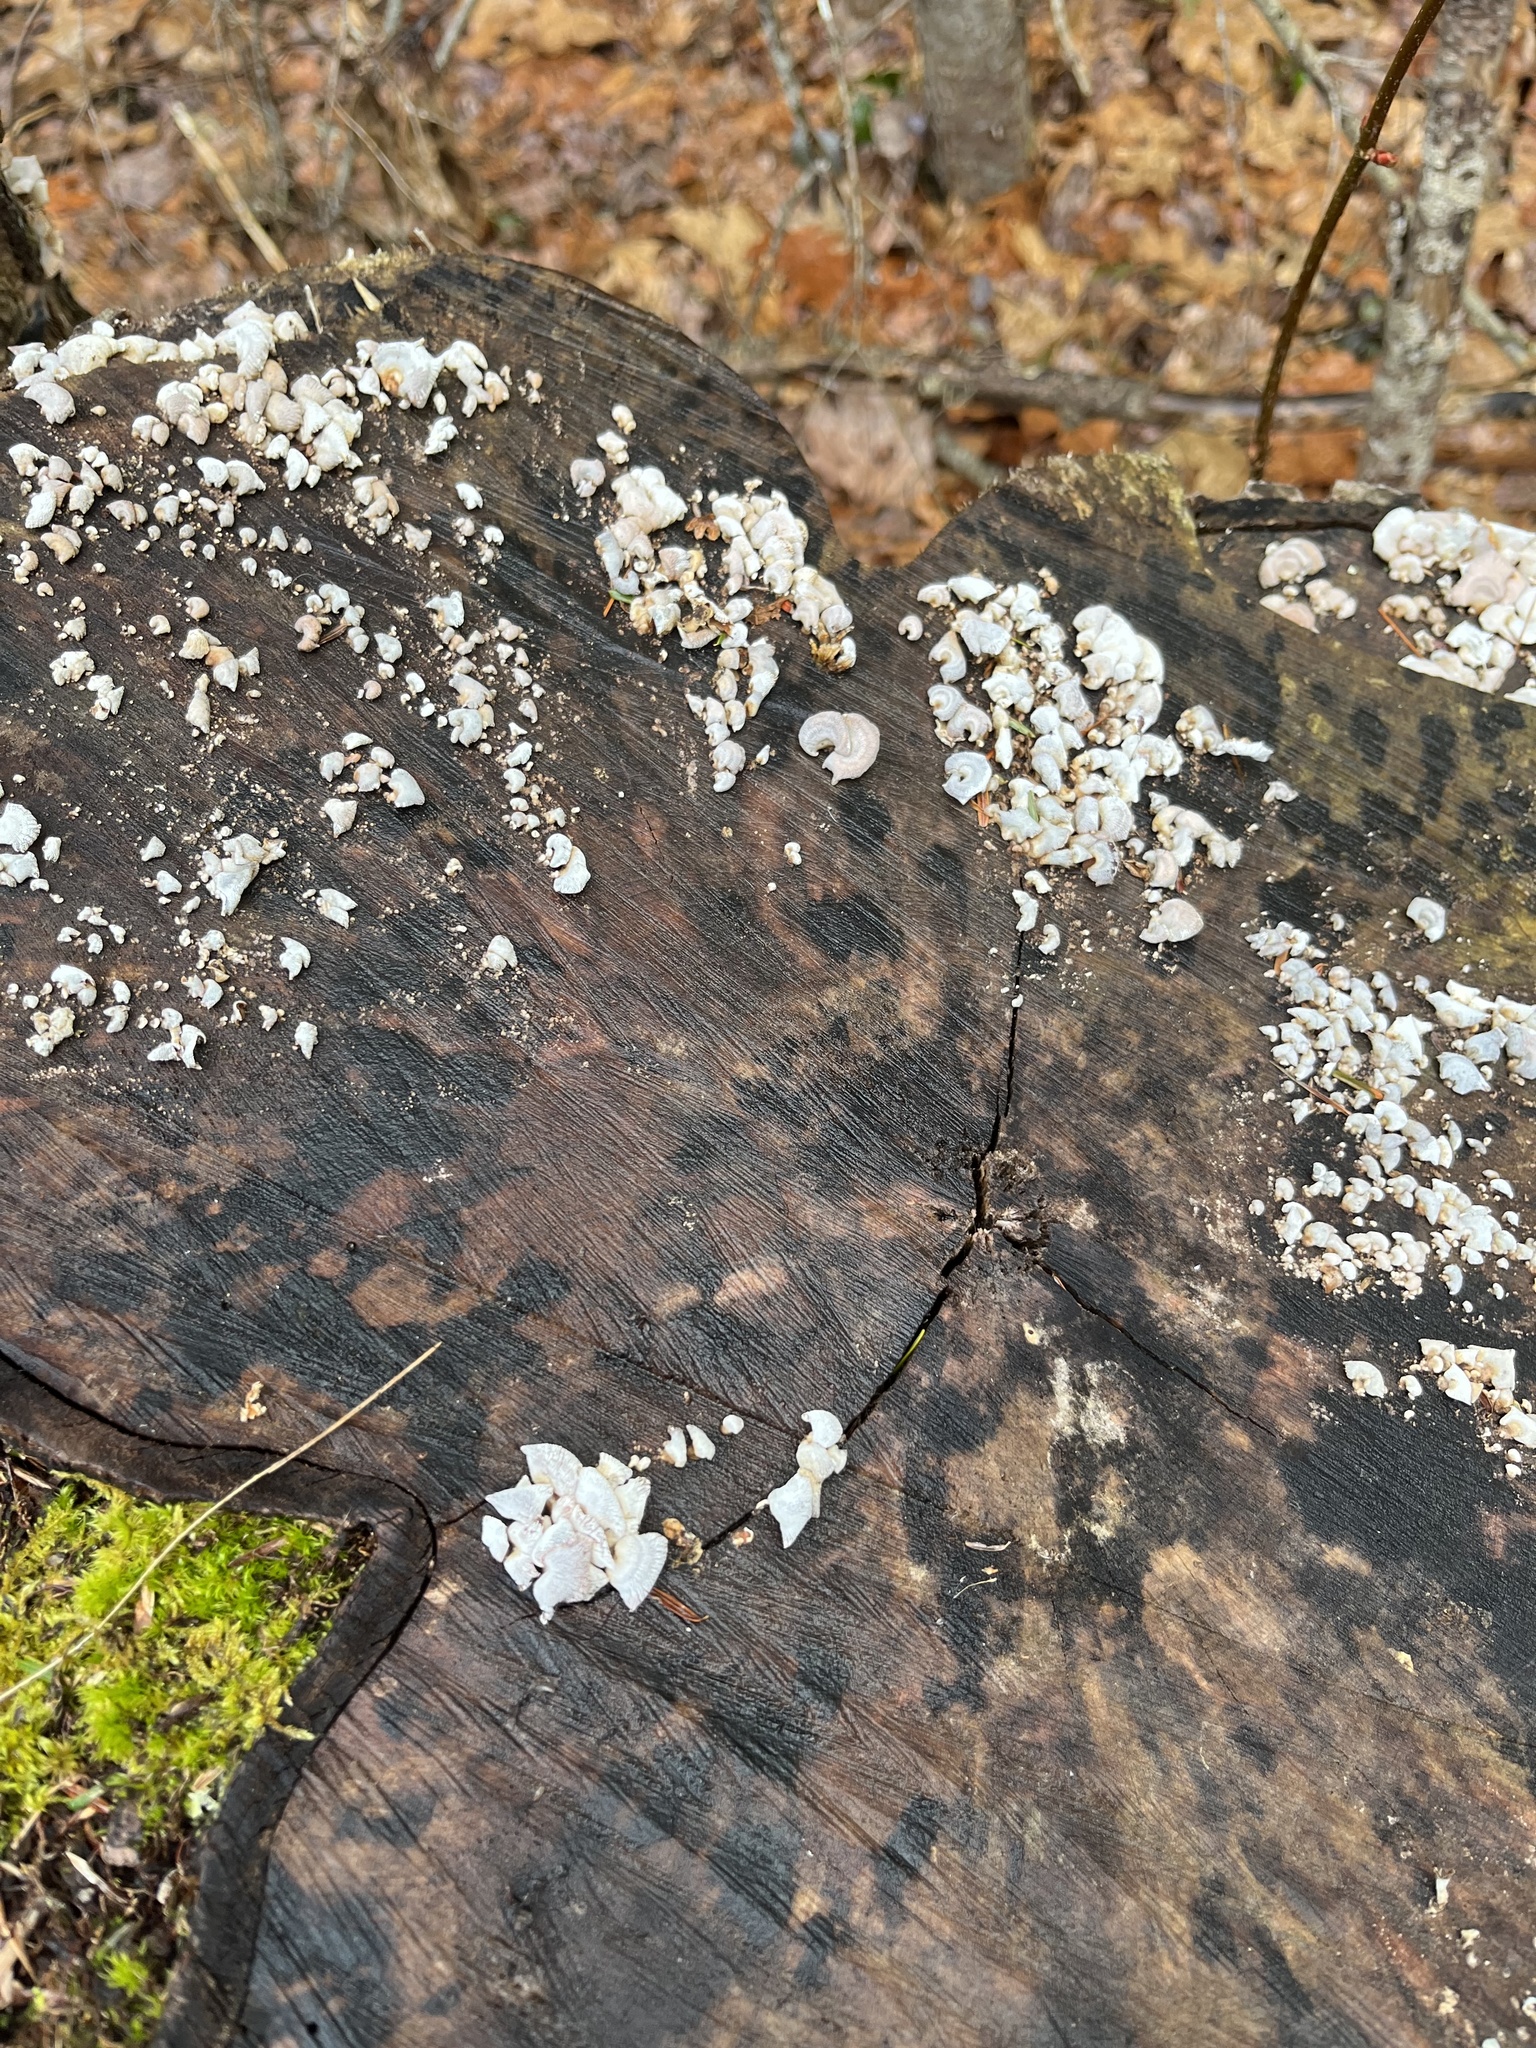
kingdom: Fungi
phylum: Basidiomycota
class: Agaricomycetes
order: Agaricales
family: Mycenaceae
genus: Panellus
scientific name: Panellus stipticus
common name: Bitter oysterling
